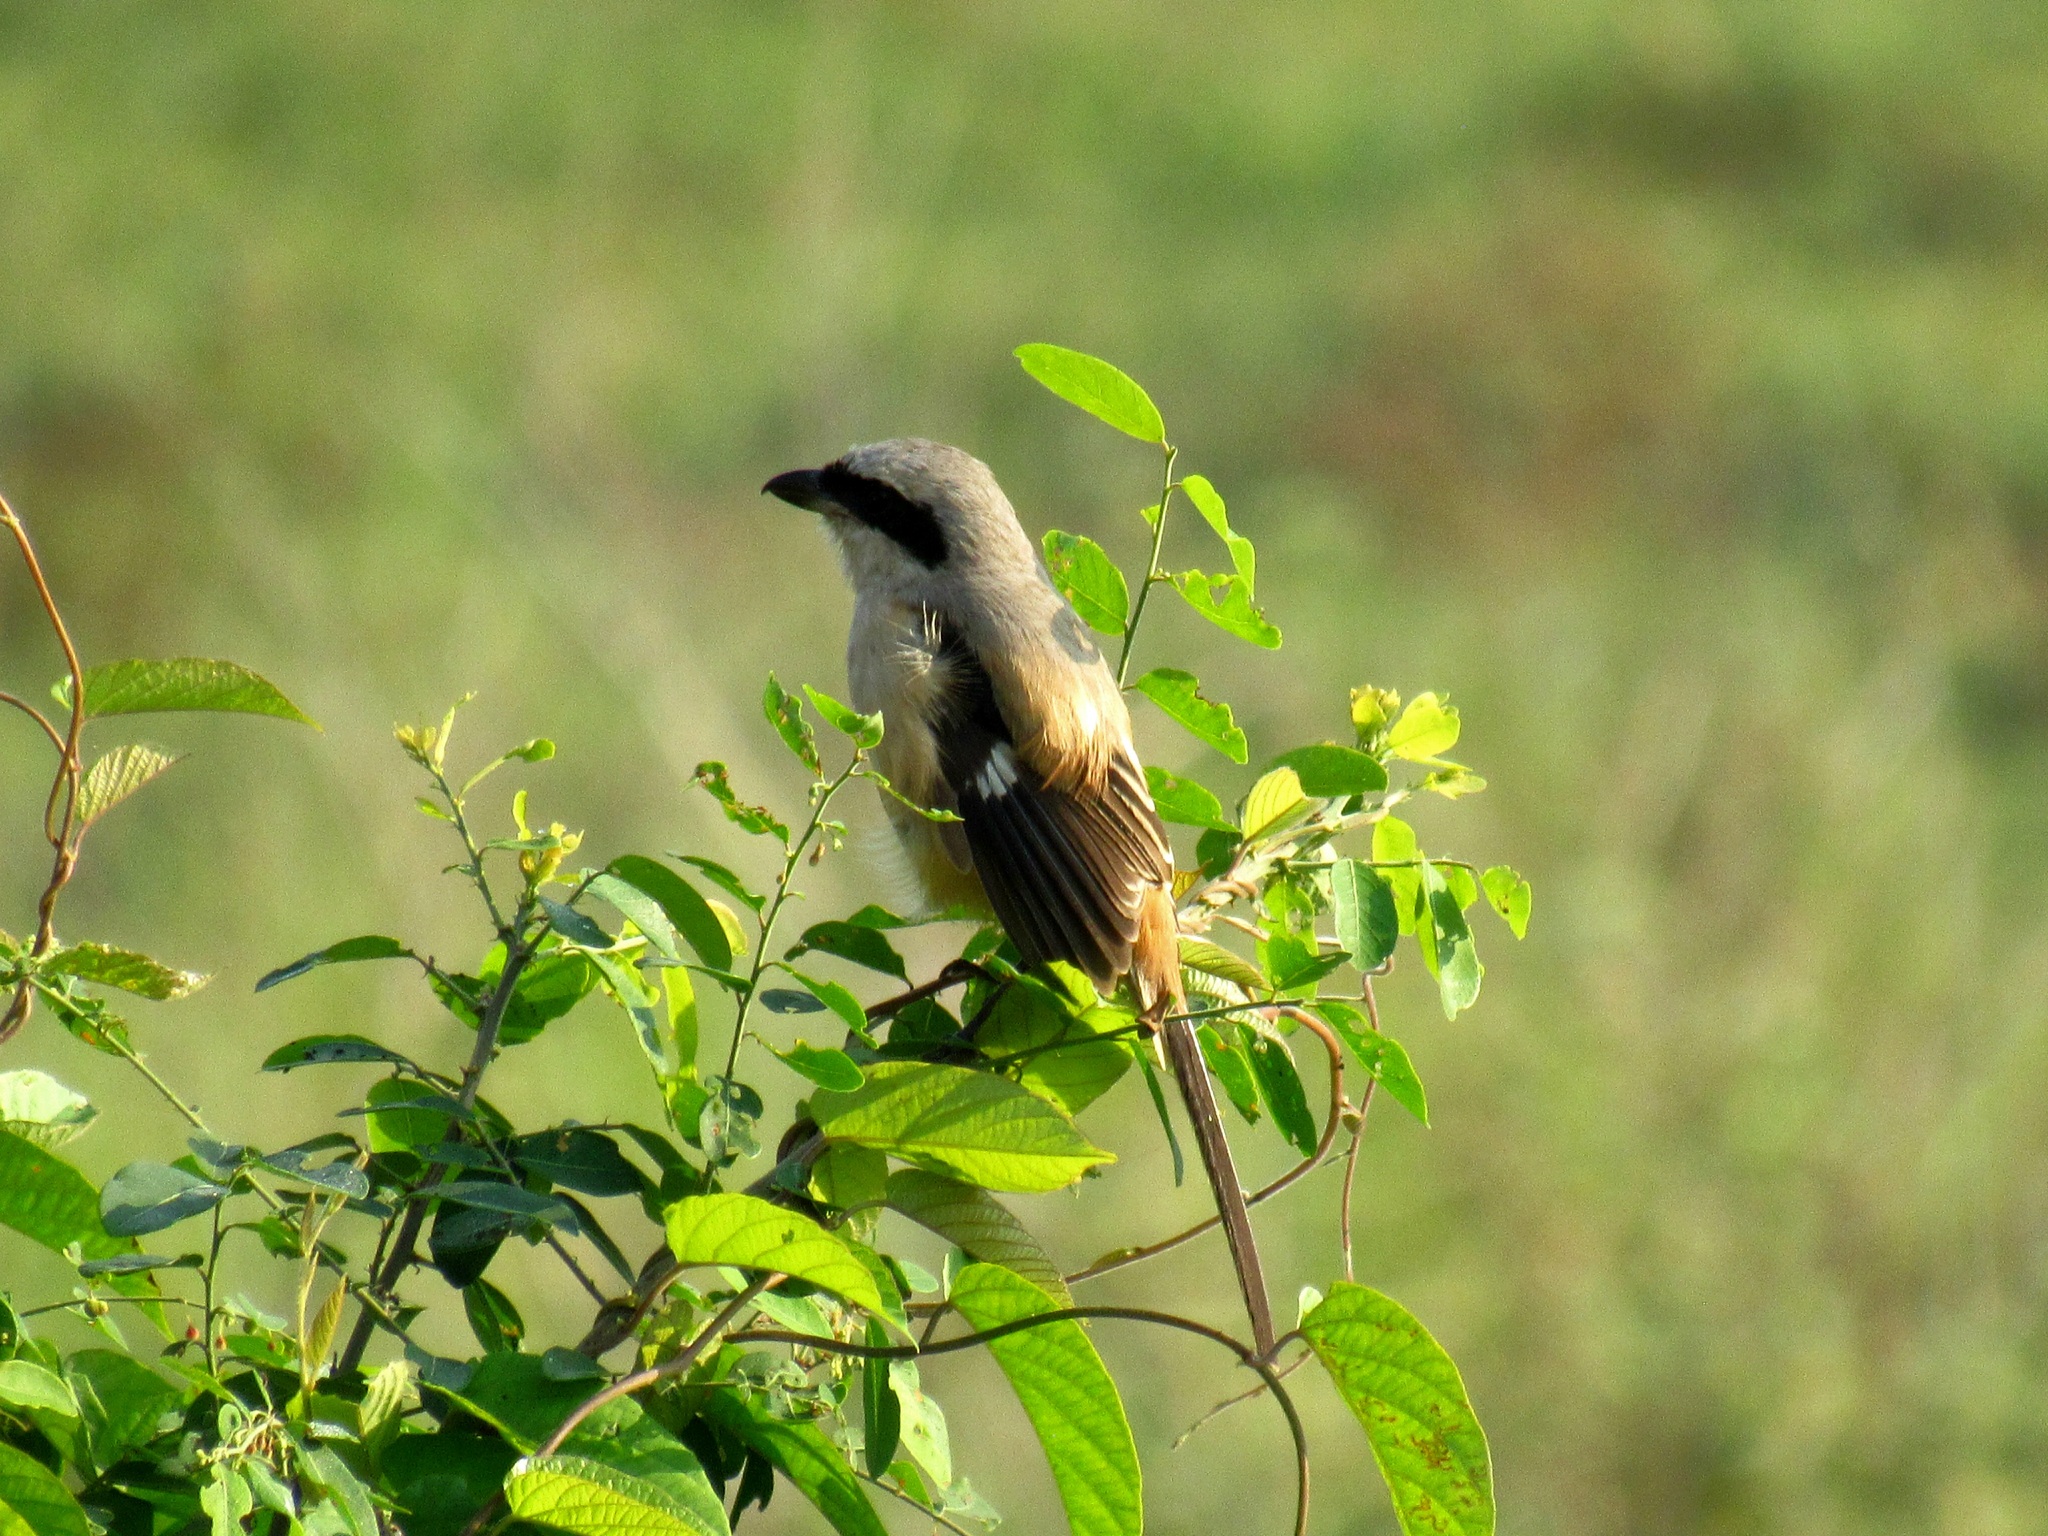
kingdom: Animalia
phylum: Chordata
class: Aves
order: Passeriformes
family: Laniidae
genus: Lanius
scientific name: Lanius schach
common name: Long-tailed shrike
